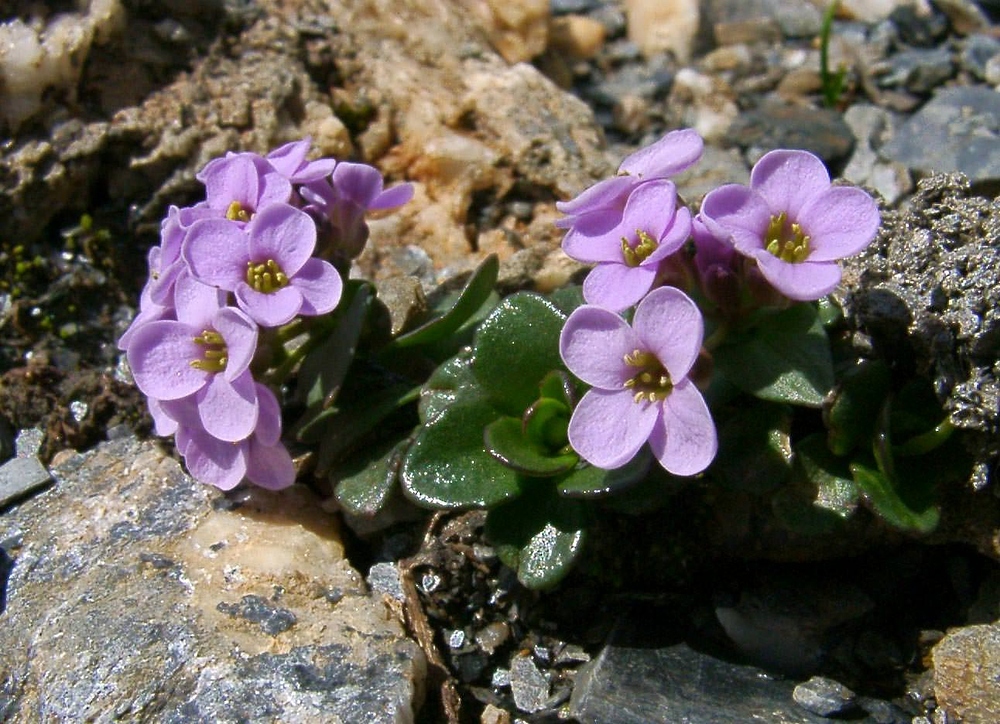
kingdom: Plantae
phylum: Tracheophyta
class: Magnoliopsida
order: Brassicales
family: Brassicaceae
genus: Noccaea
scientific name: Noccaea rotundifolia
